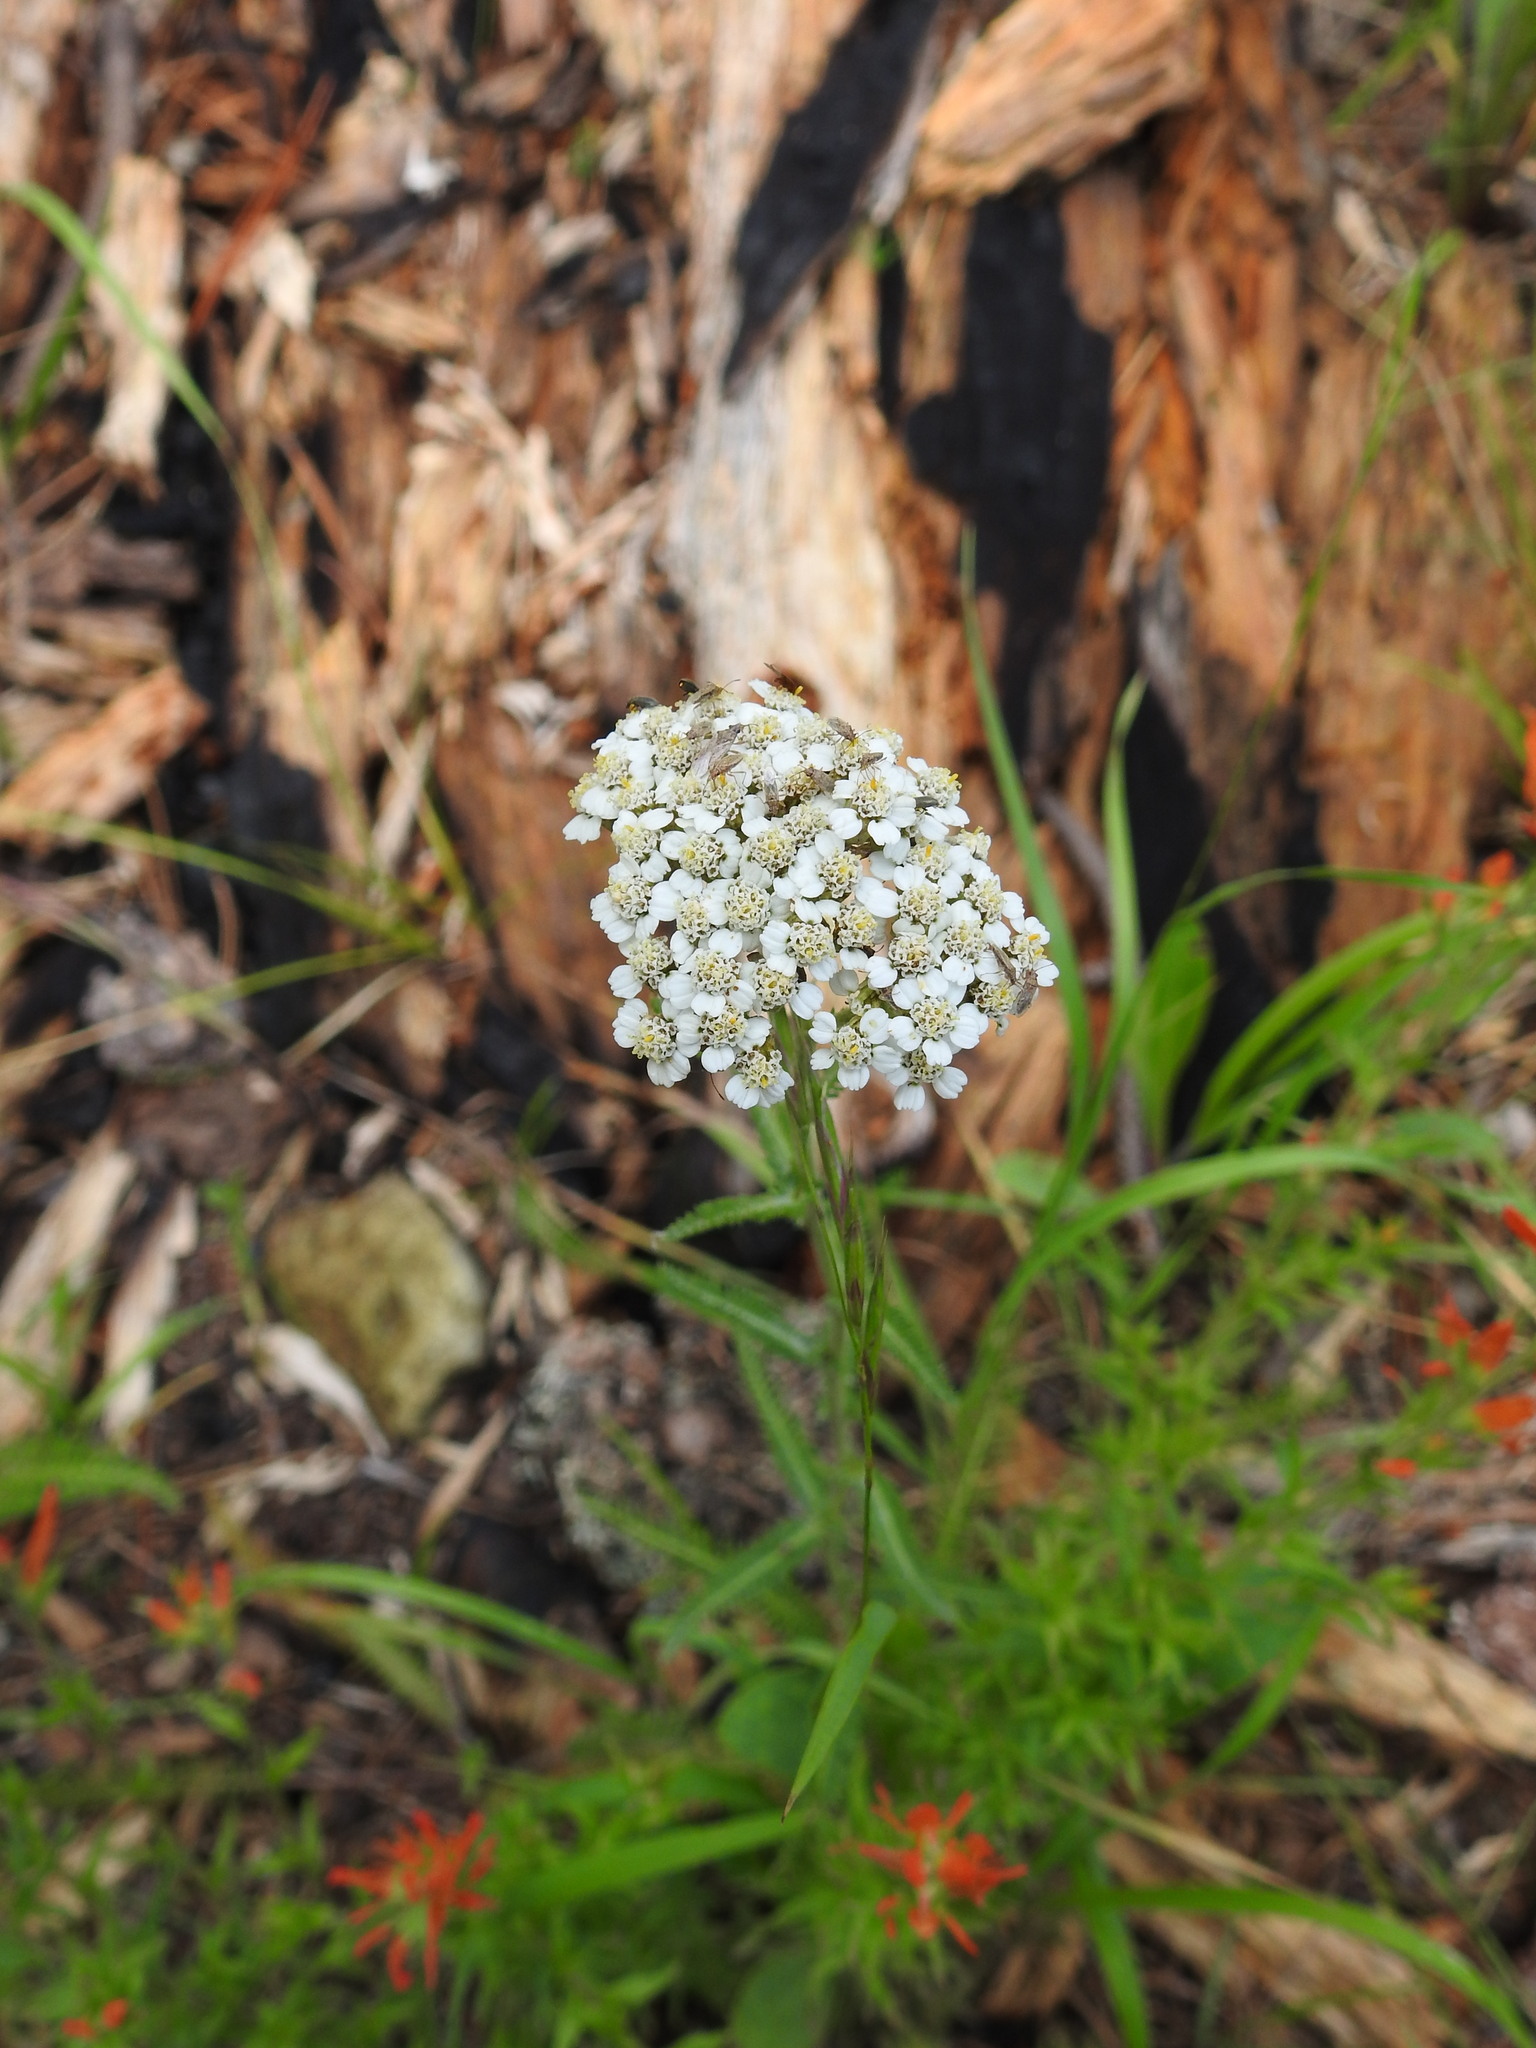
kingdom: Plantae
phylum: Tracheophyta
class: Magnoliopsida
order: Asterales
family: Asteraceae
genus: Achillea
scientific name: Achillea millefolium
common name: Yarrow
